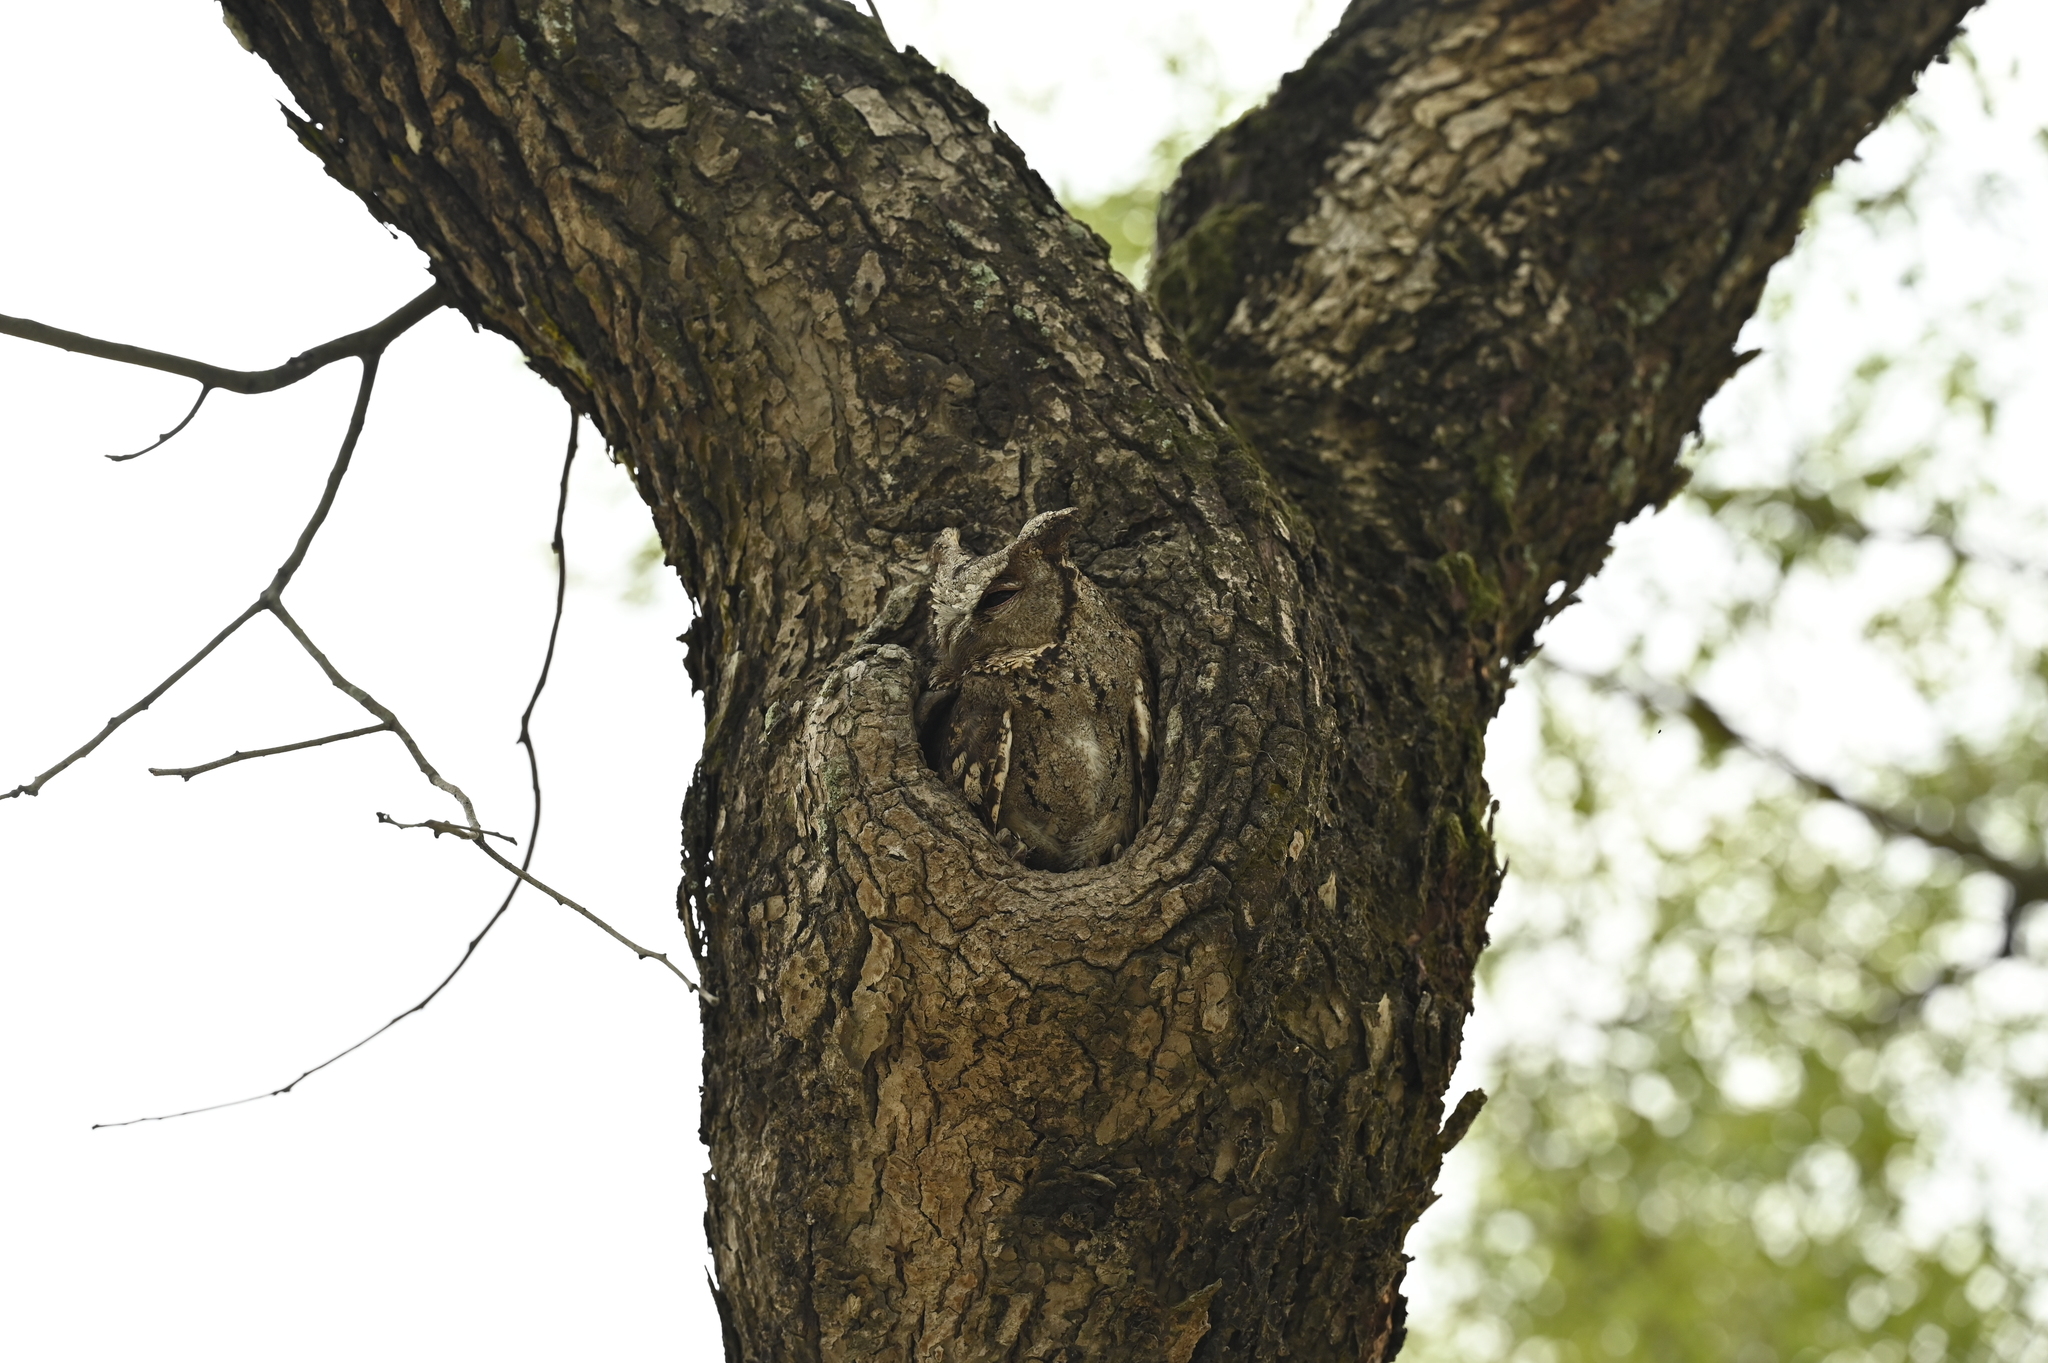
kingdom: Animalia
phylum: Chordata
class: Aves
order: Strigiformes
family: Strigidae
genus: Otus
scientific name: Otus lettia
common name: Collared scops owl
